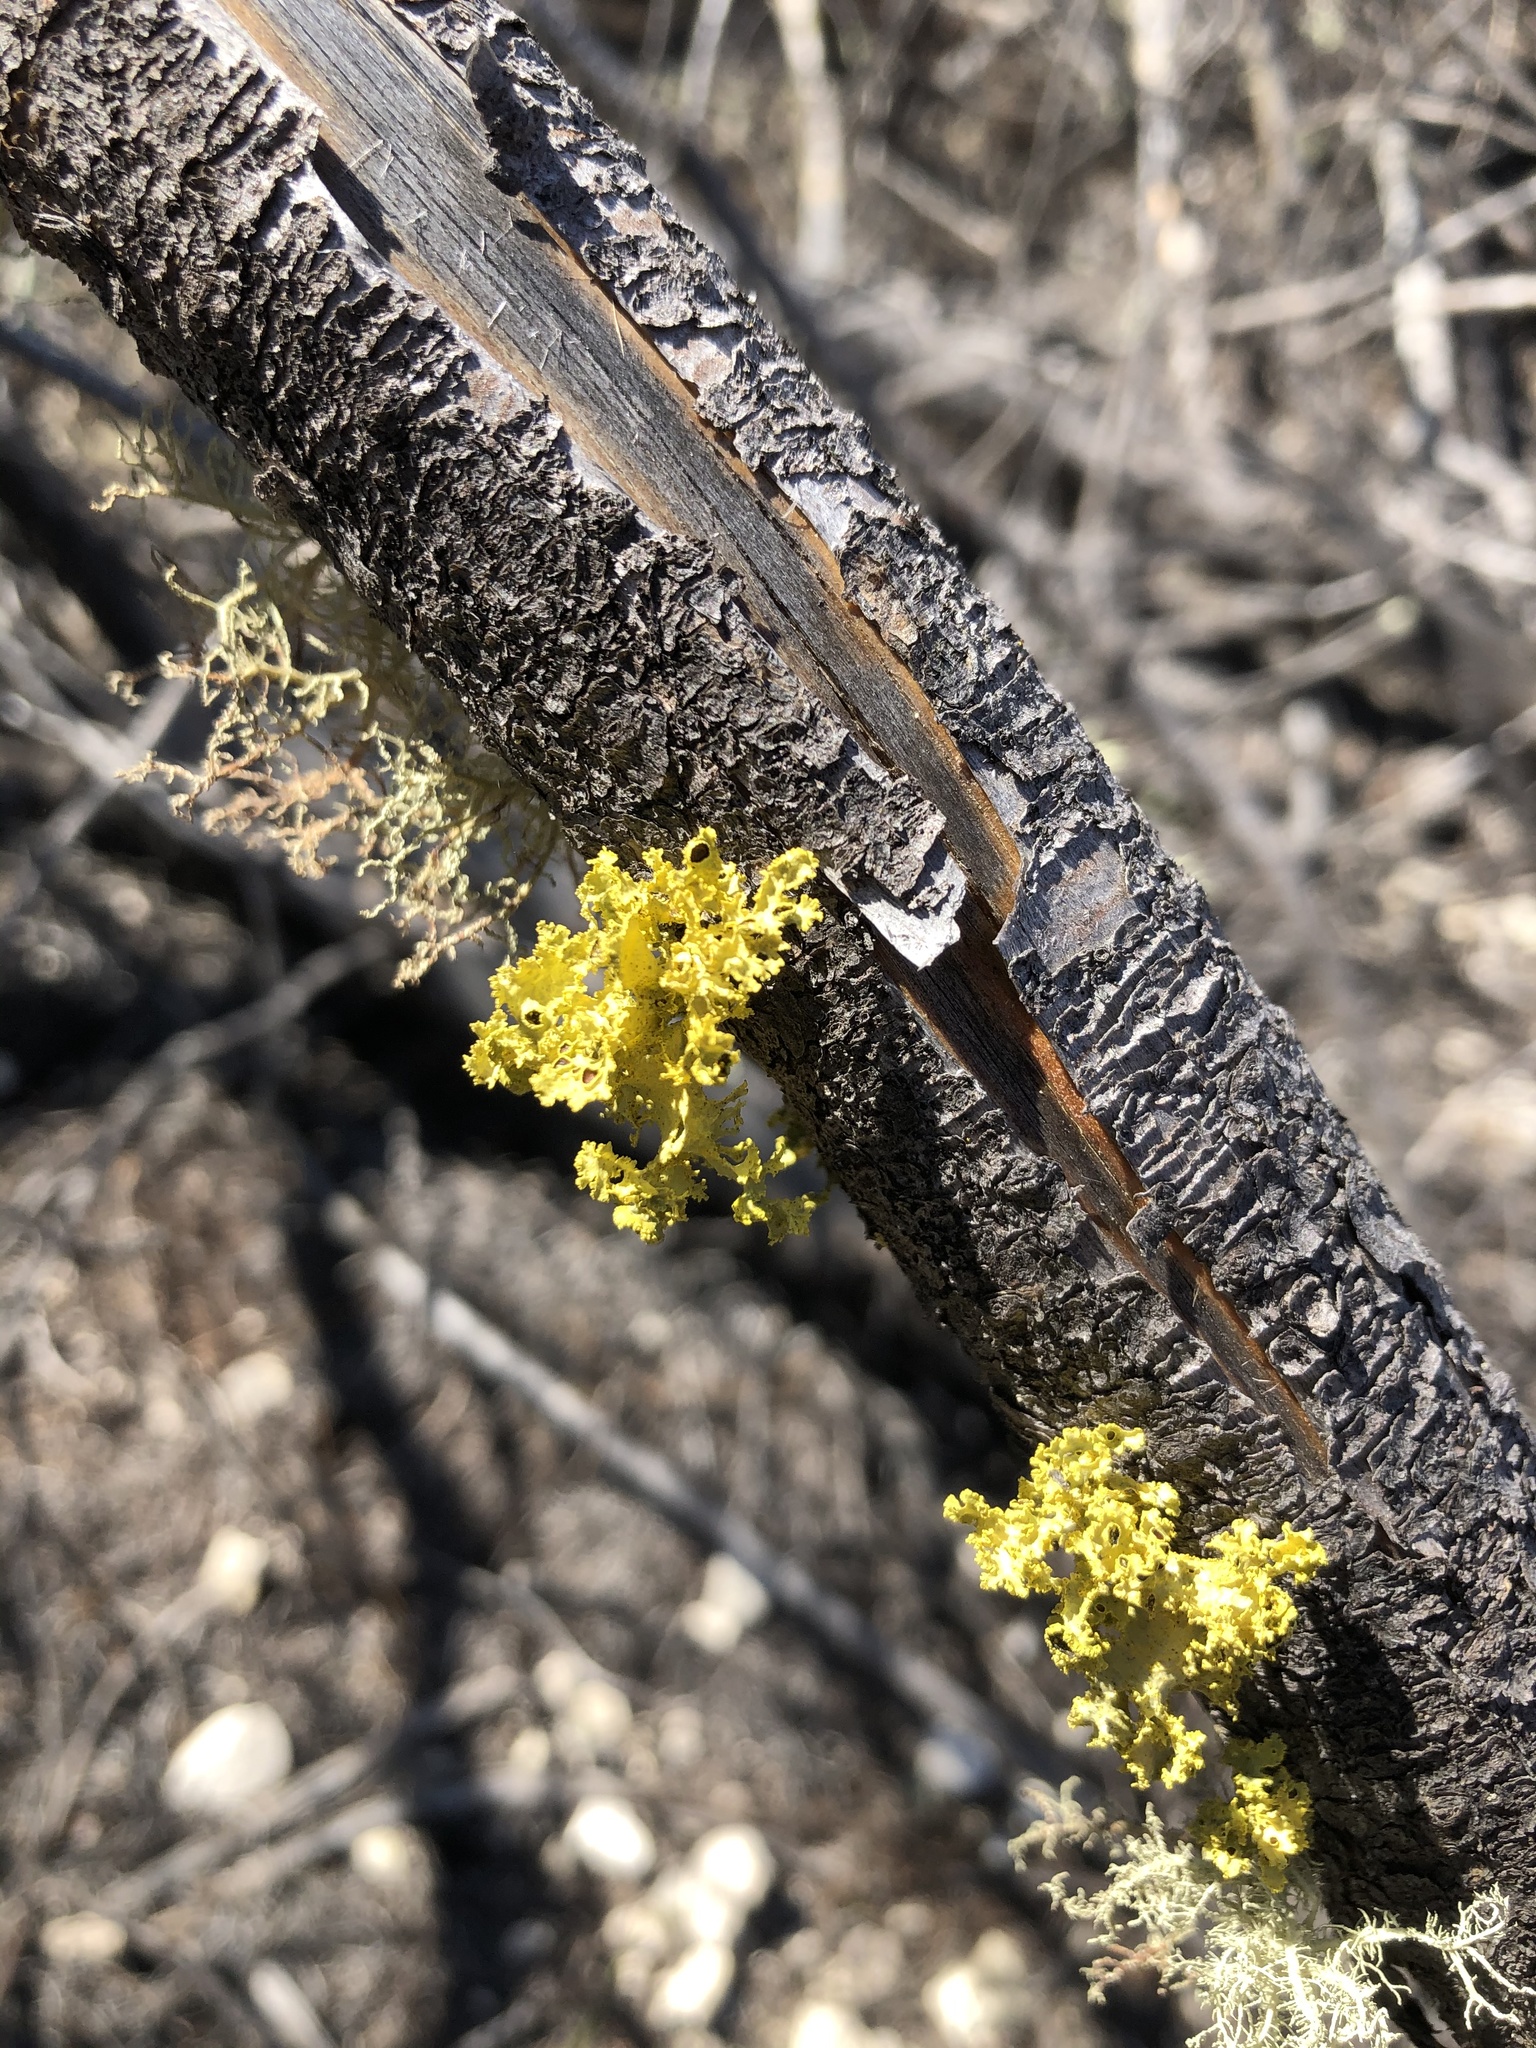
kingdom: Fungi
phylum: Ascomycota
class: Lecanoromycetes
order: Lecanorales
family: Parmeliaceae
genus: Vulpicida
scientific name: Vulpicida canadensis
